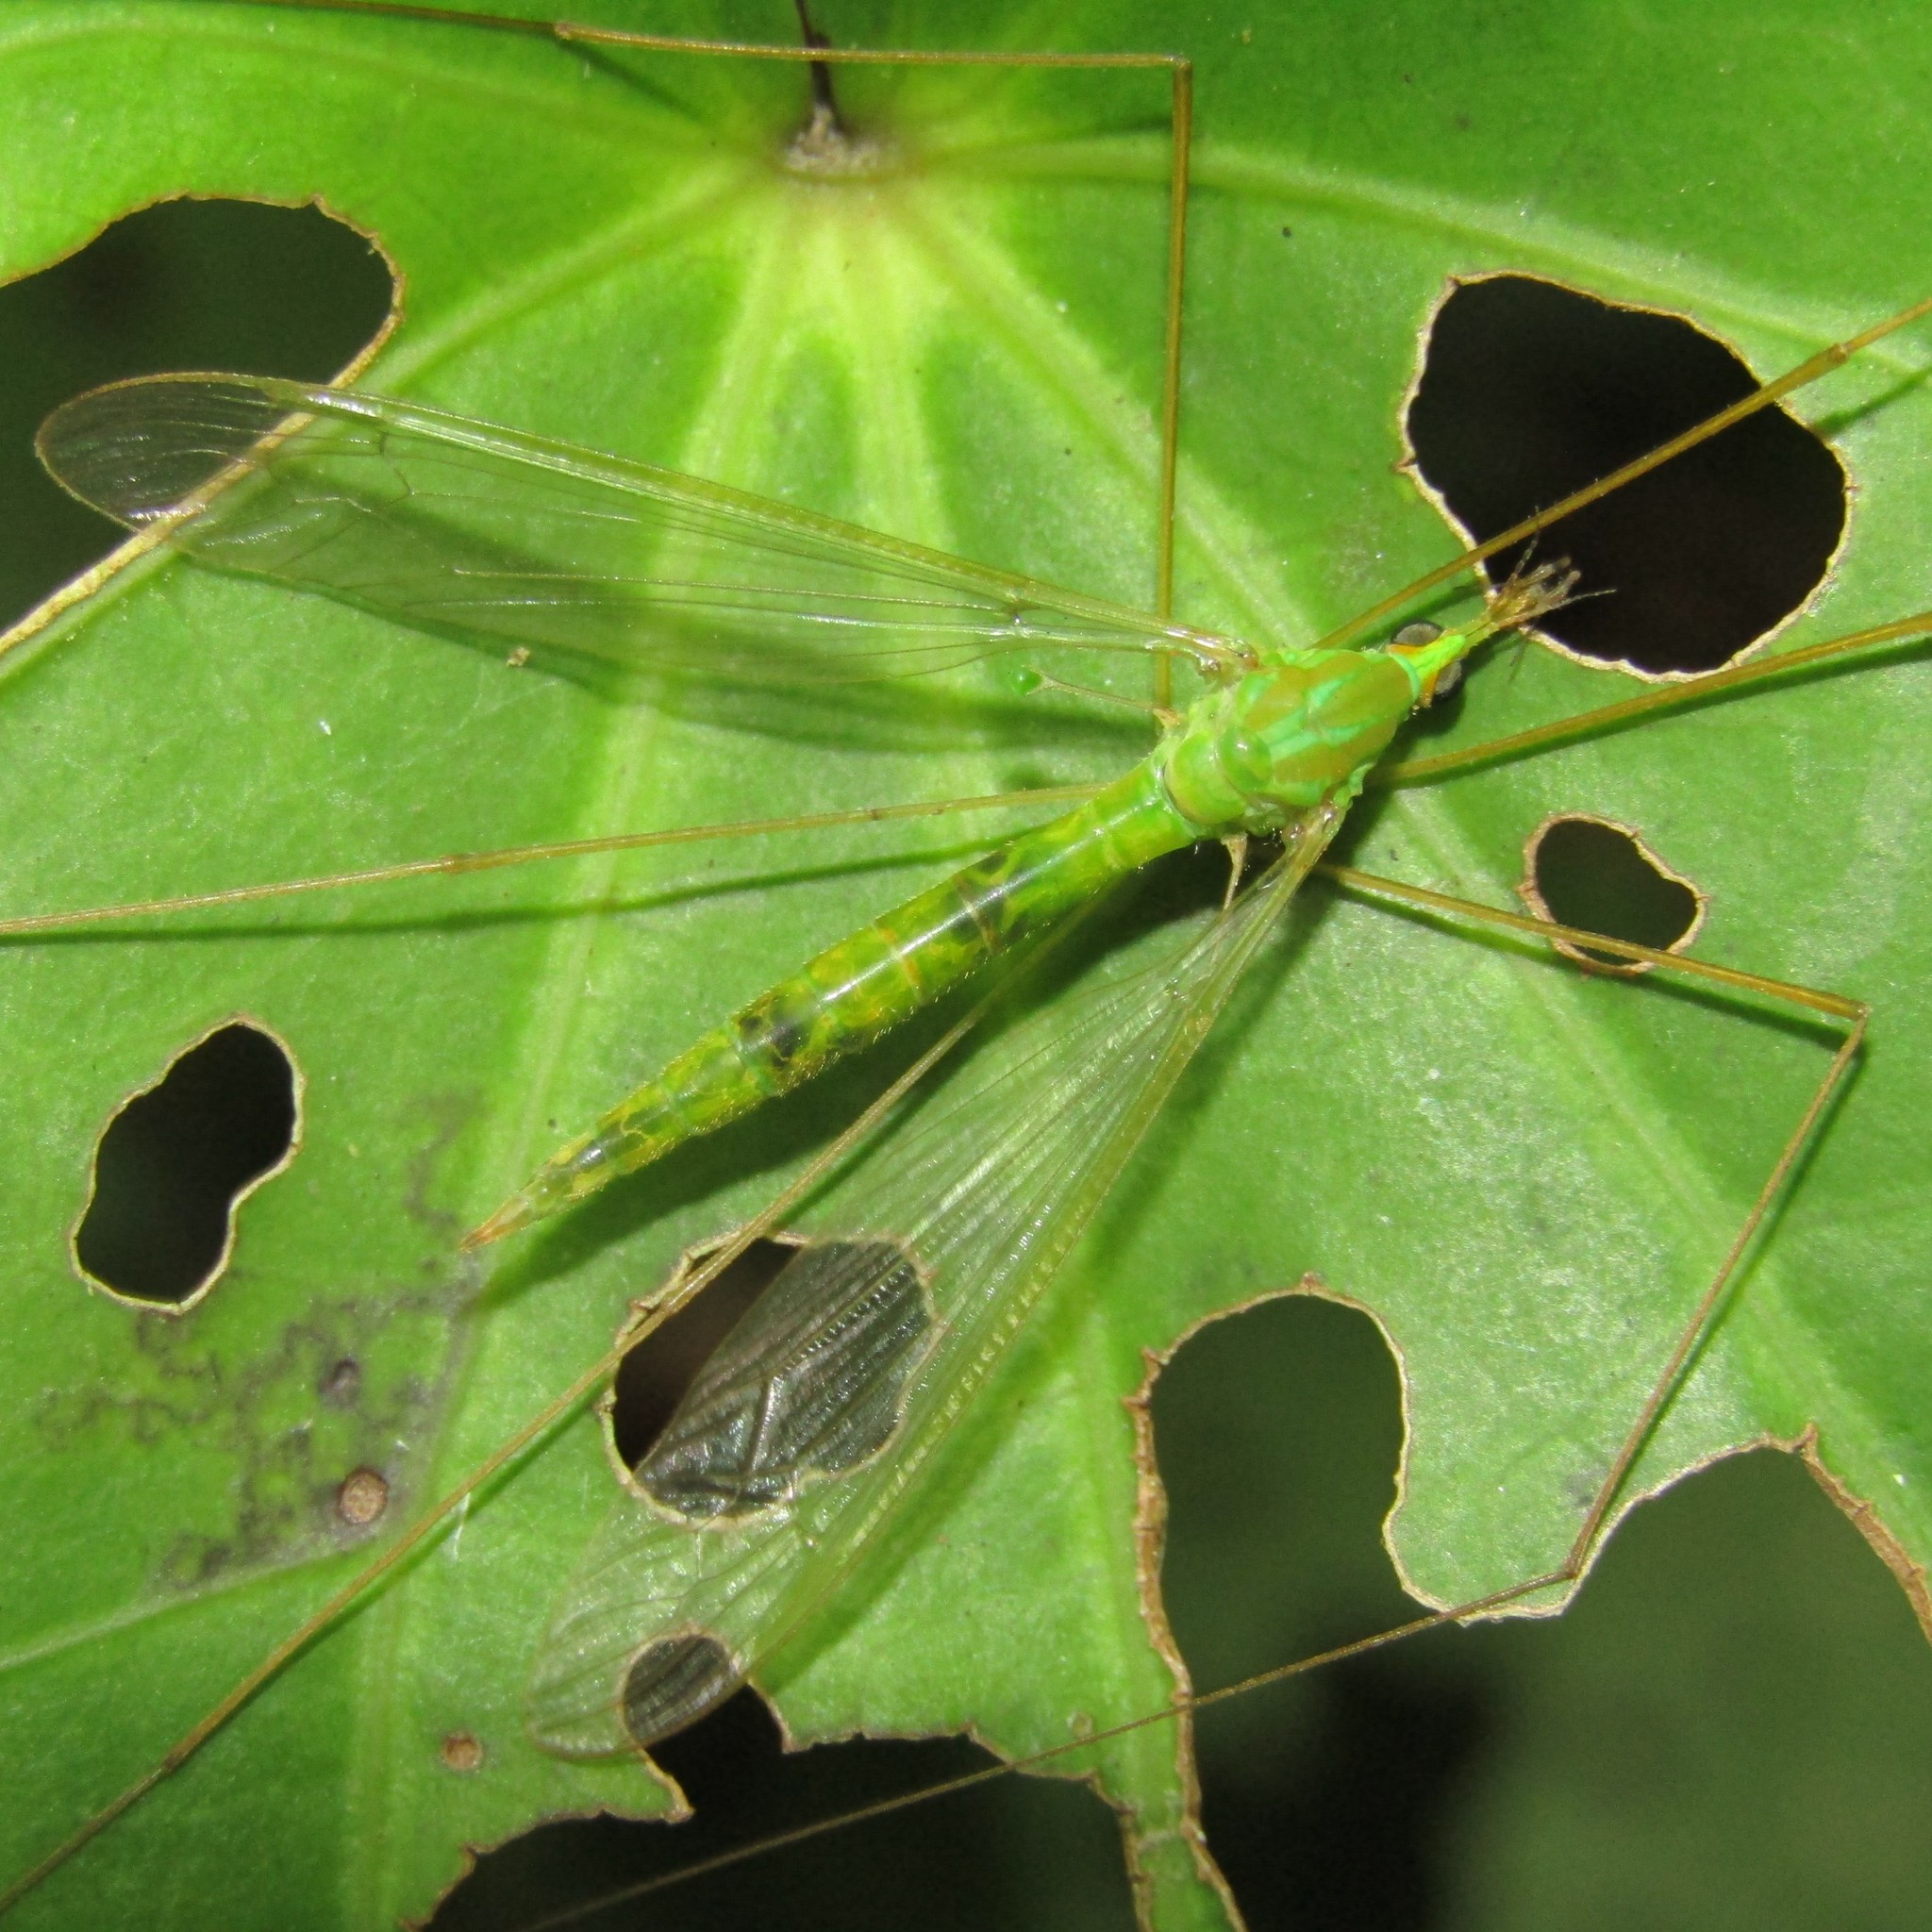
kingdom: Animalia
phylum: Arthropoda
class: Insecta
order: Diptera
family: Tipulidae
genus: Leptotarsus
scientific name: Leptotarsus virescens
